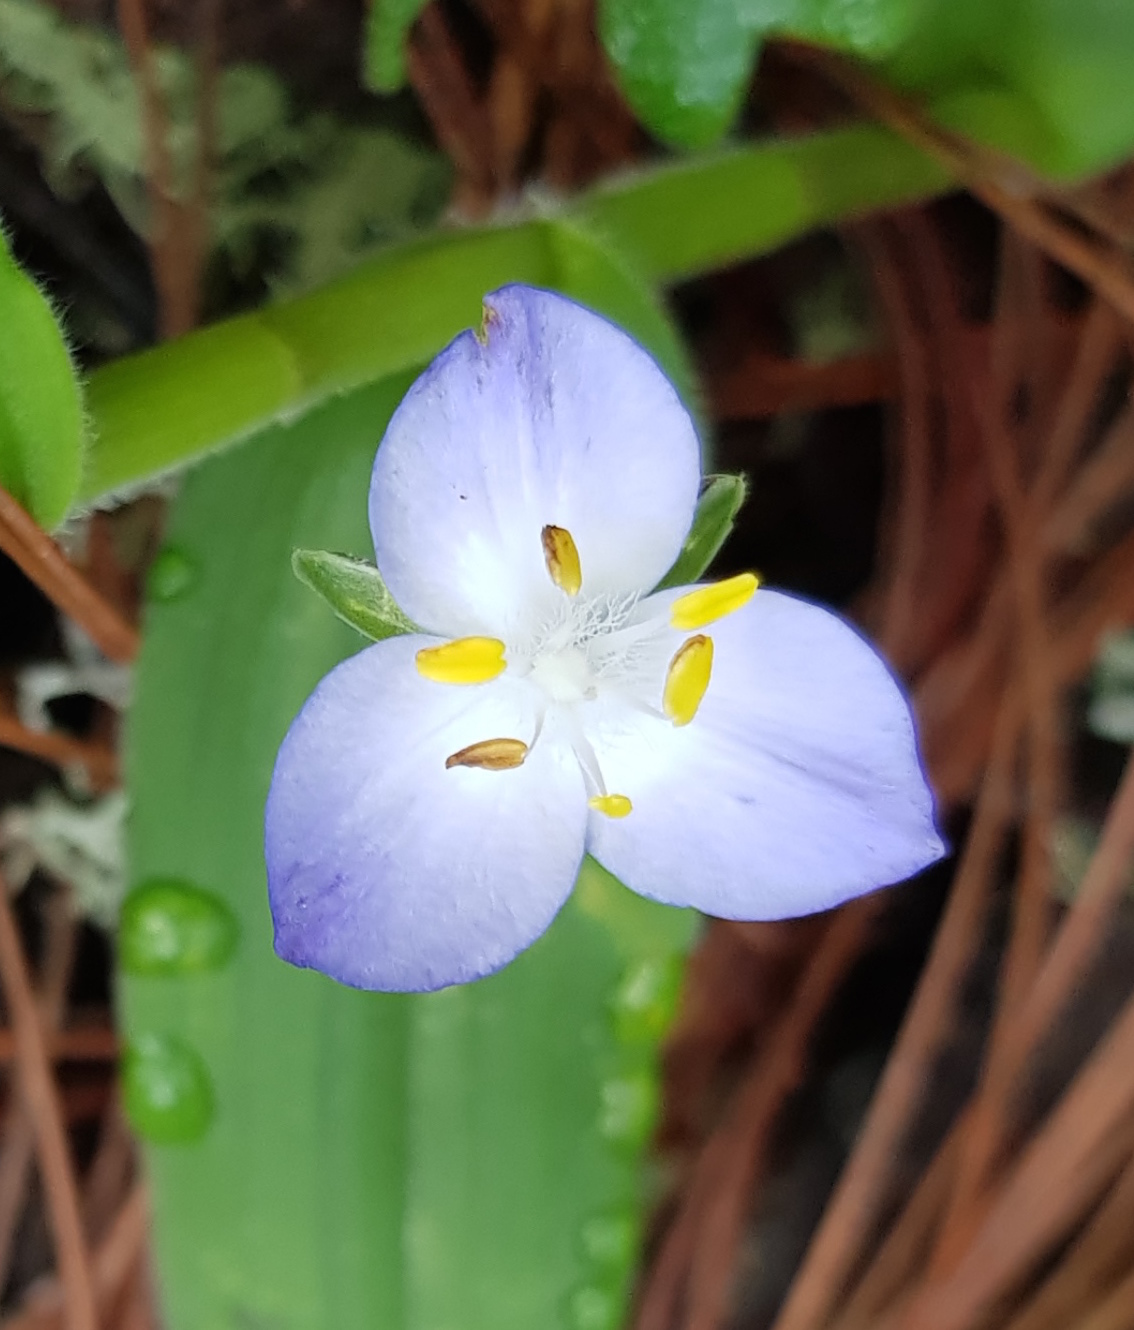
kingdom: Plantae
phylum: Tracheophyta
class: Liliopsida
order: Commelinales
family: Commelinaceae
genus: Matudanthus
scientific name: Matudanthus nanus
